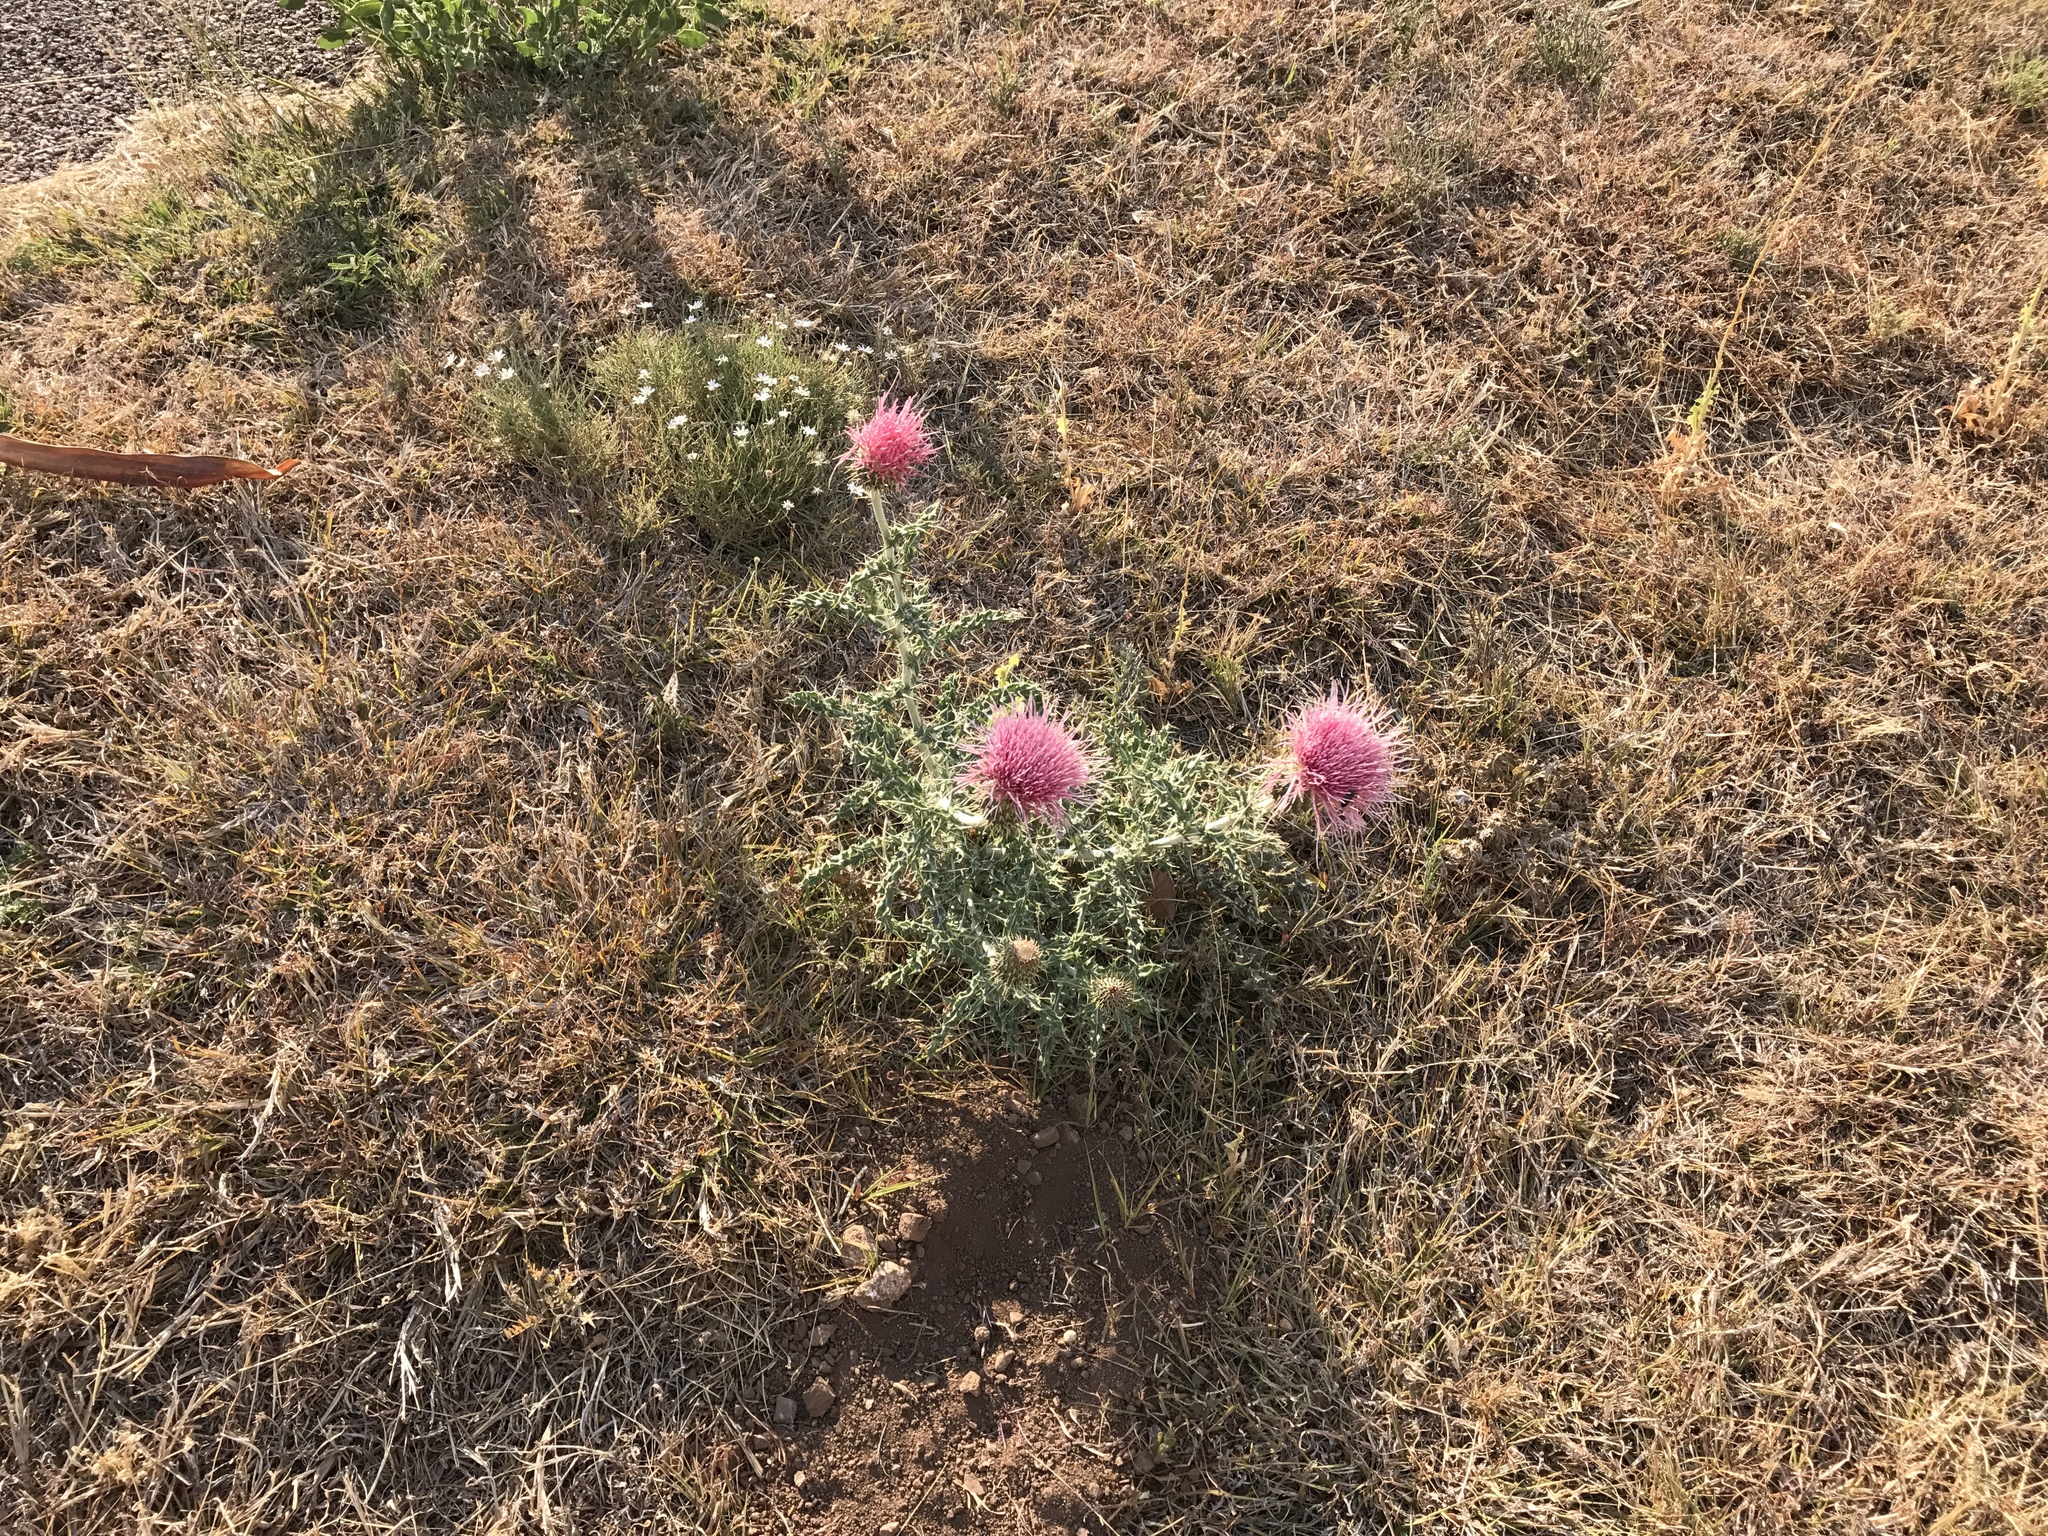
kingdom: Plantae
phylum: Tracheophyta
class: Magnoliopsida
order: Asterales
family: Asteraceae
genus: Cirsium
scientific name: Cirsium ochrocentrum
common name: Yellow-spine thistle
